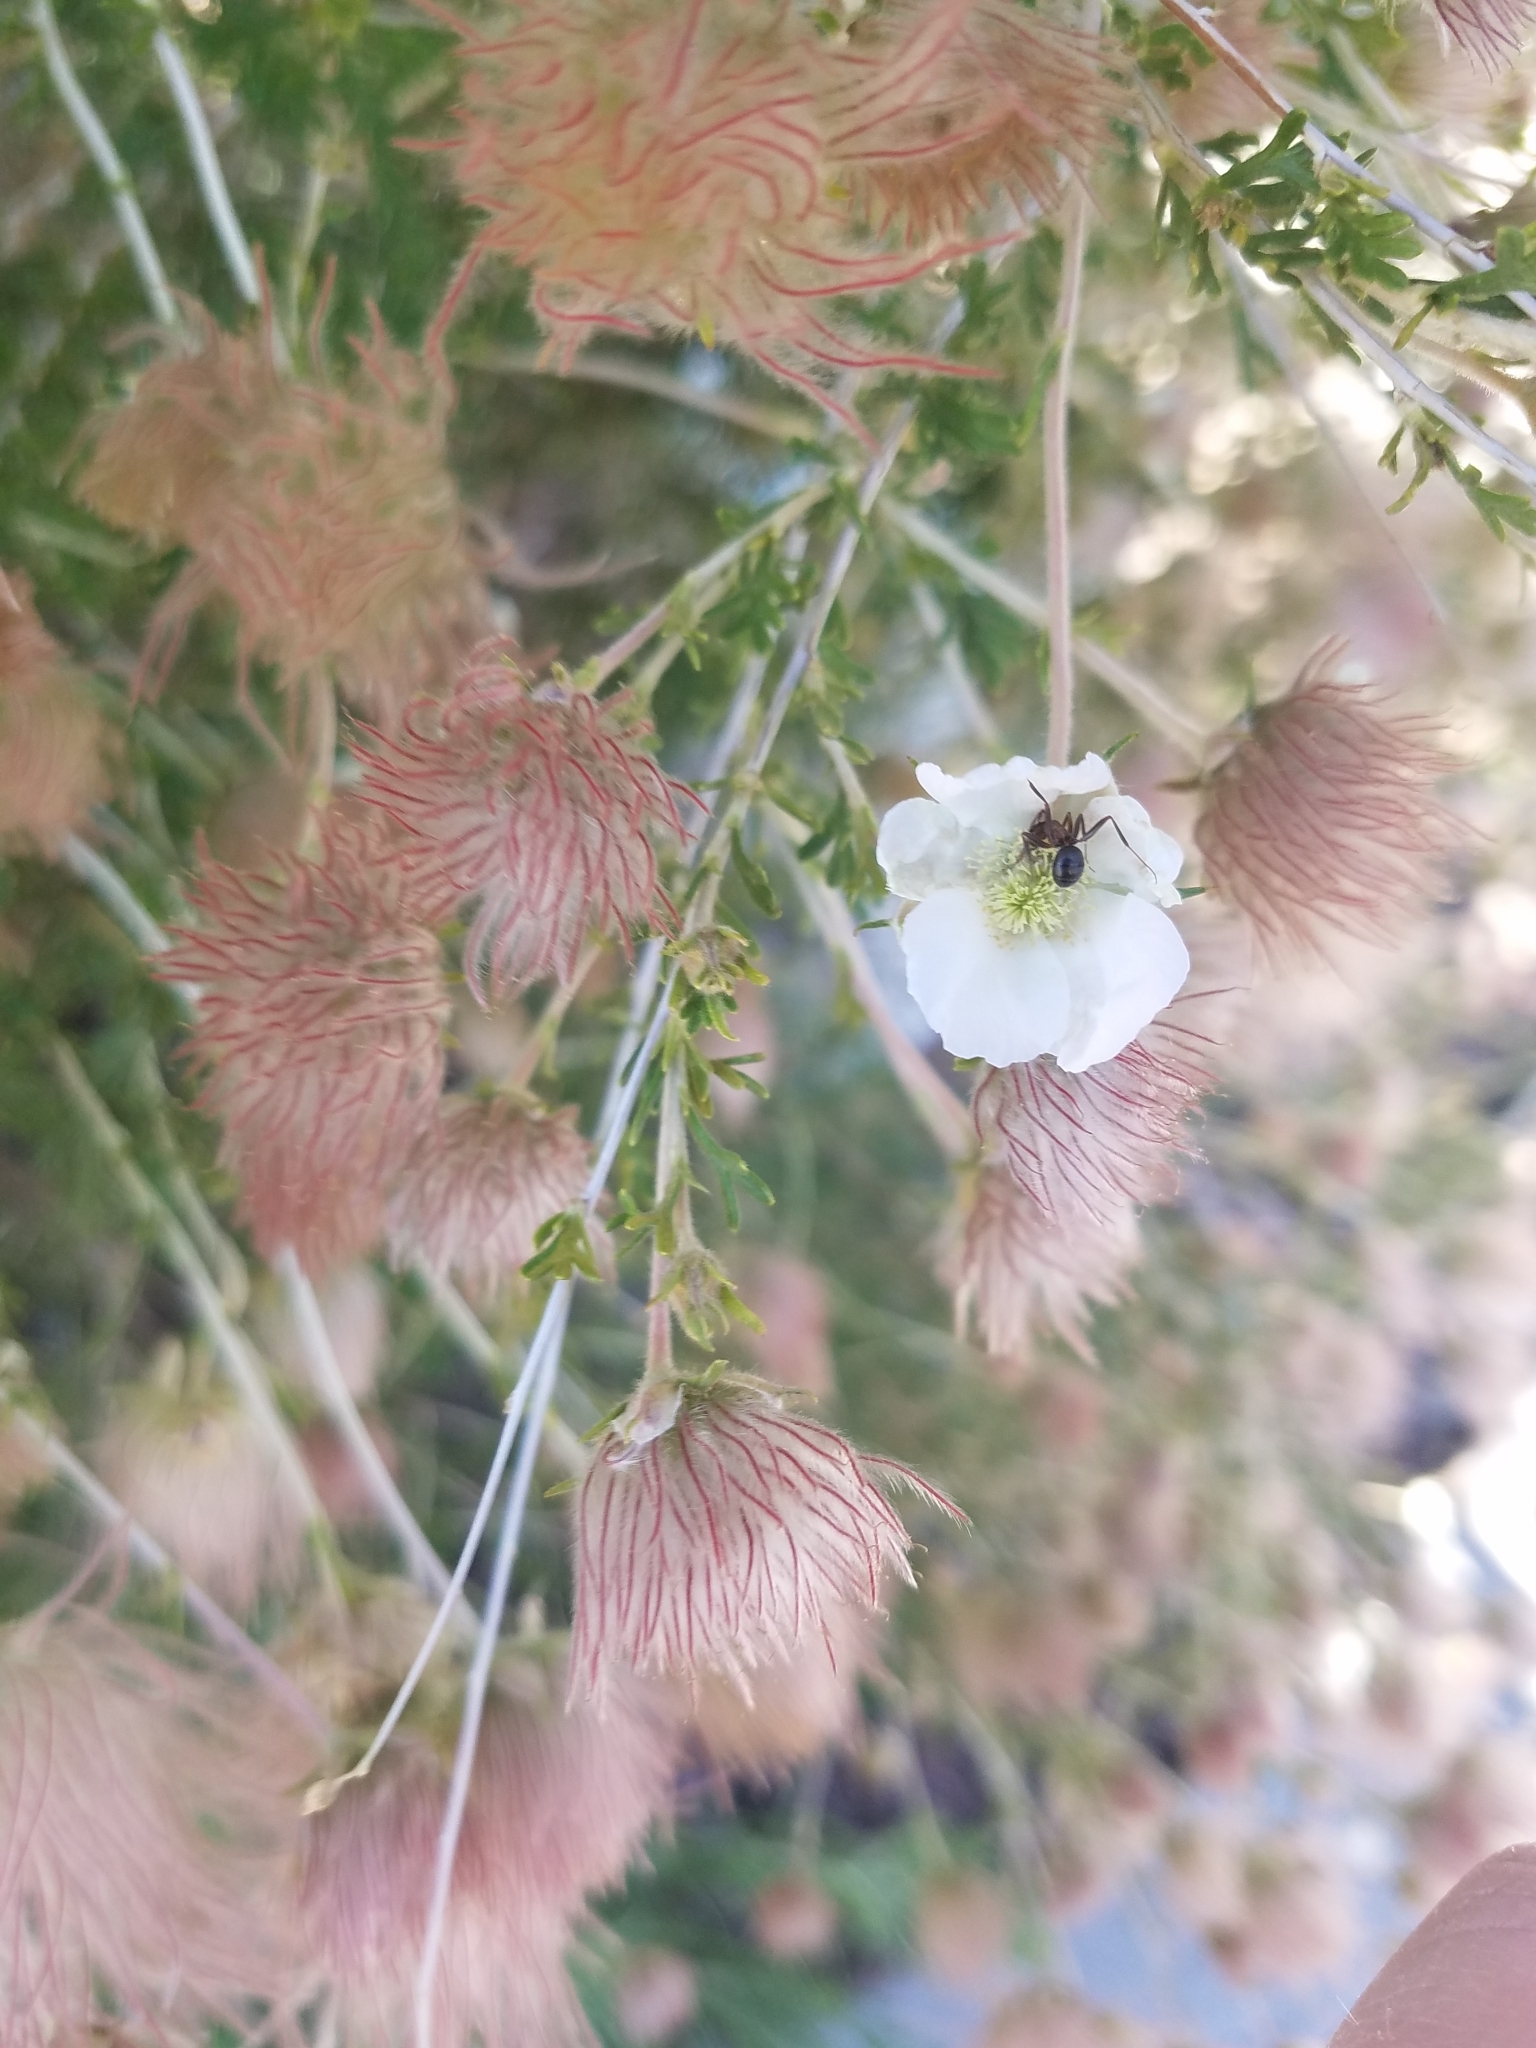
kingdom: Plantae
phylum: Tracheophyta
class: Magnoliopsida
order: Rosales
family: Rosaceae
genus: Fallugia
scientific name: Fallugia paradoxa
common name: Apache-plume
